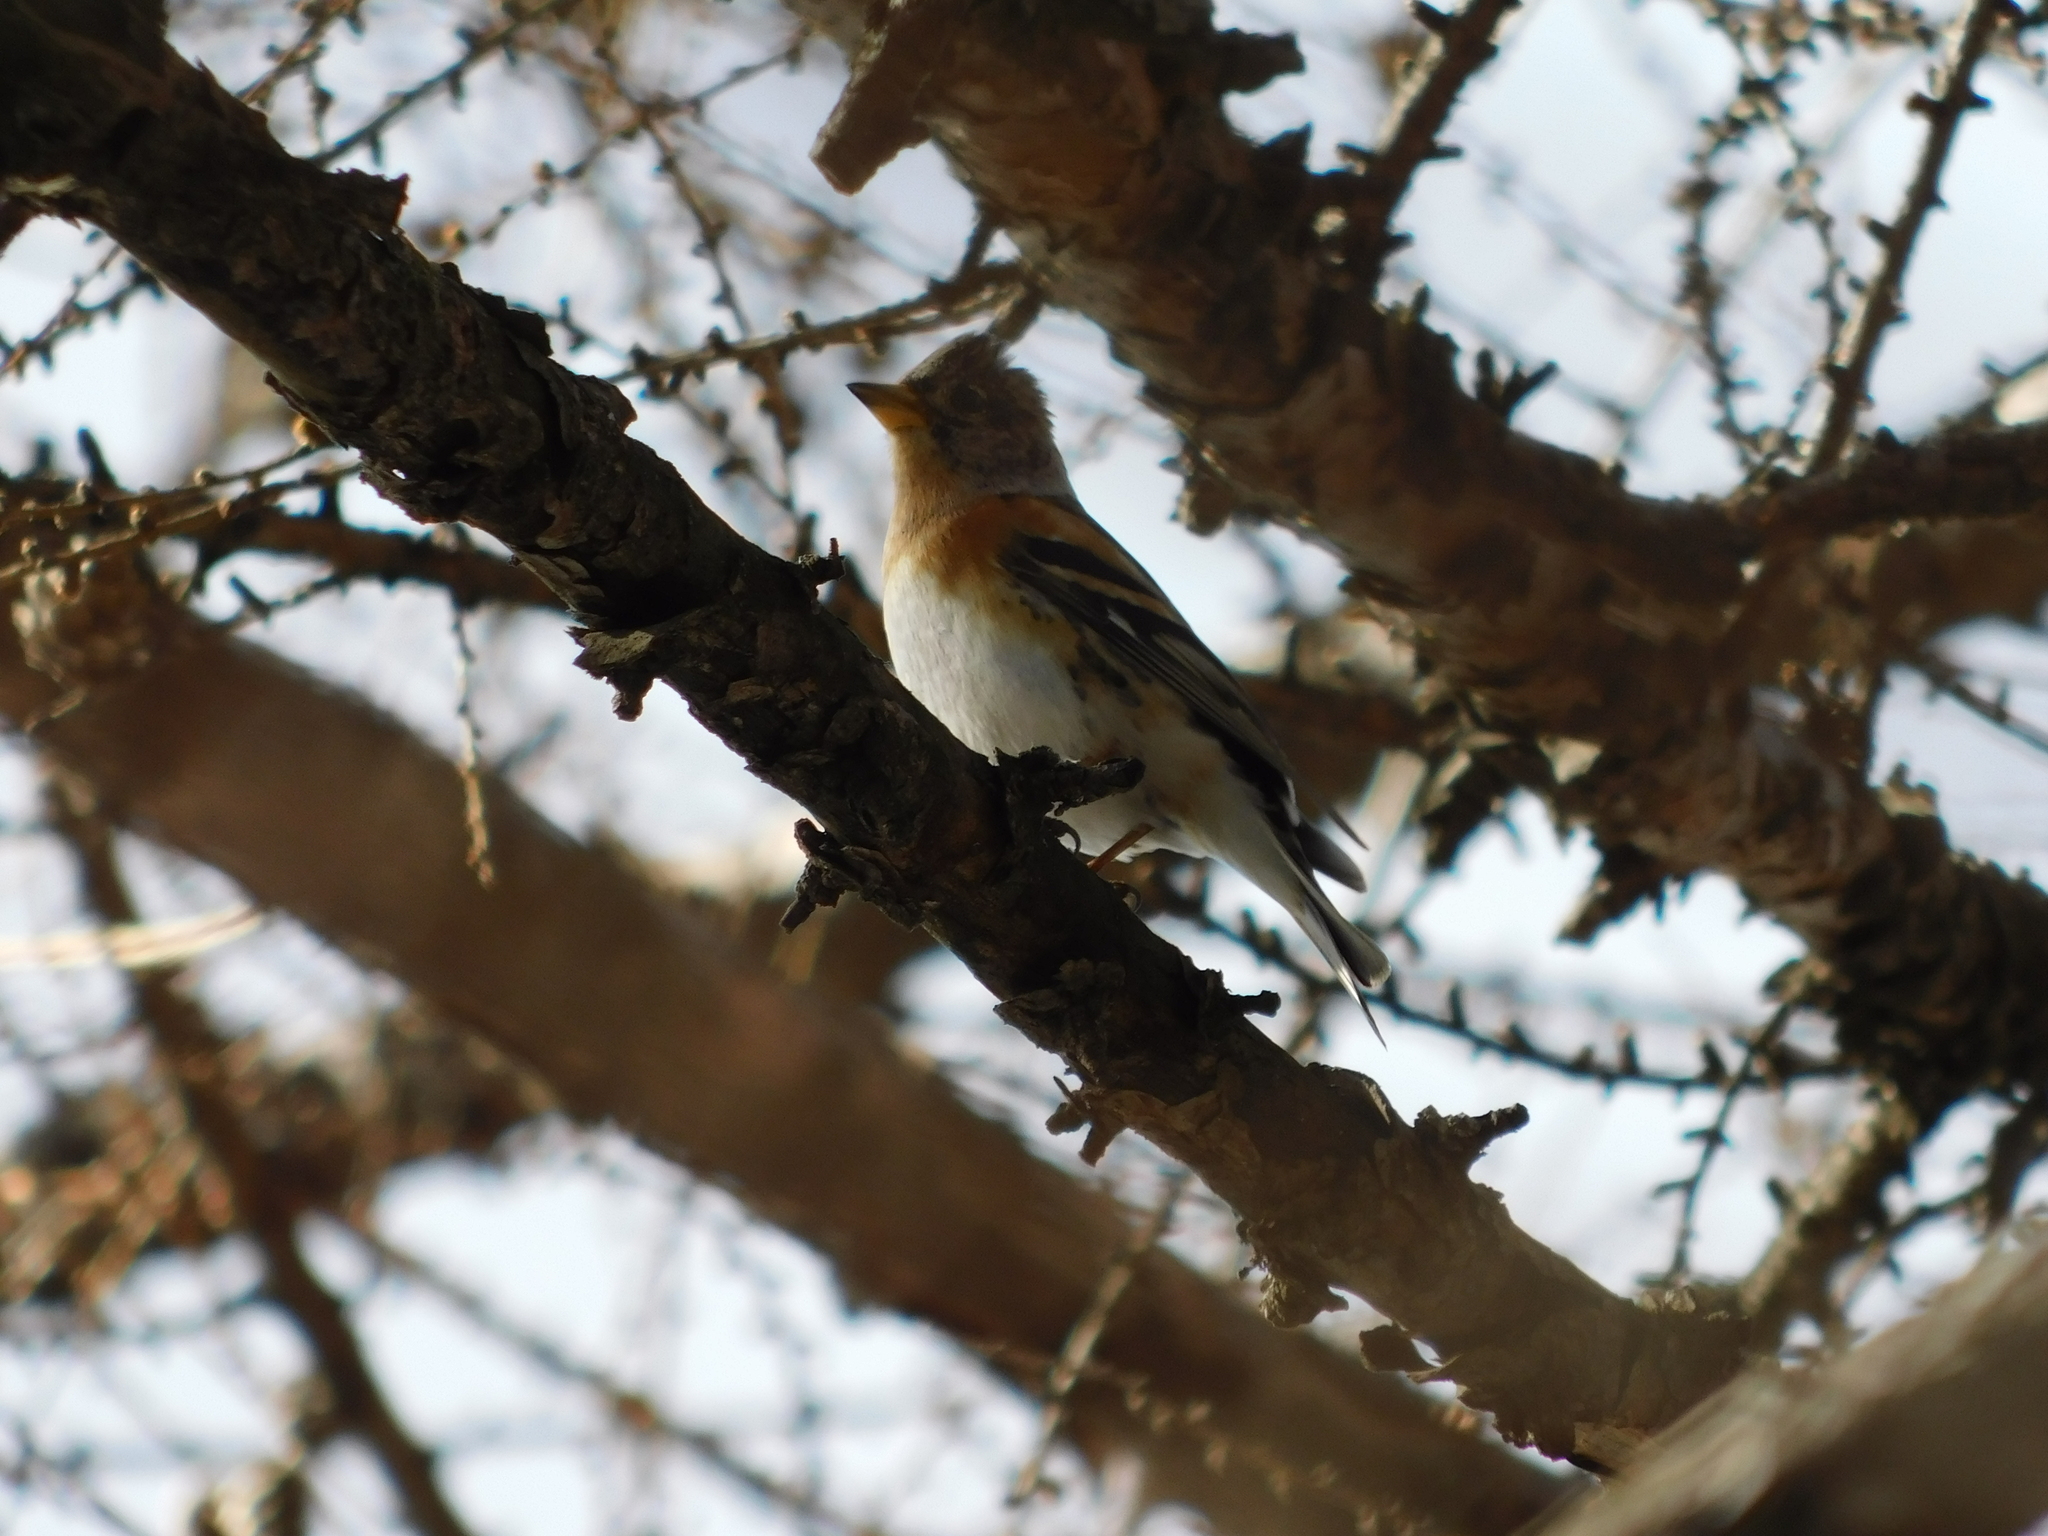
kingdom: Animalia
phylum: Chordata
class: Aves
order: Passeriformes
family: Fringillidae
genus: Fringilla
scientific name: Fringilla montifringilla
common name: Brambling
